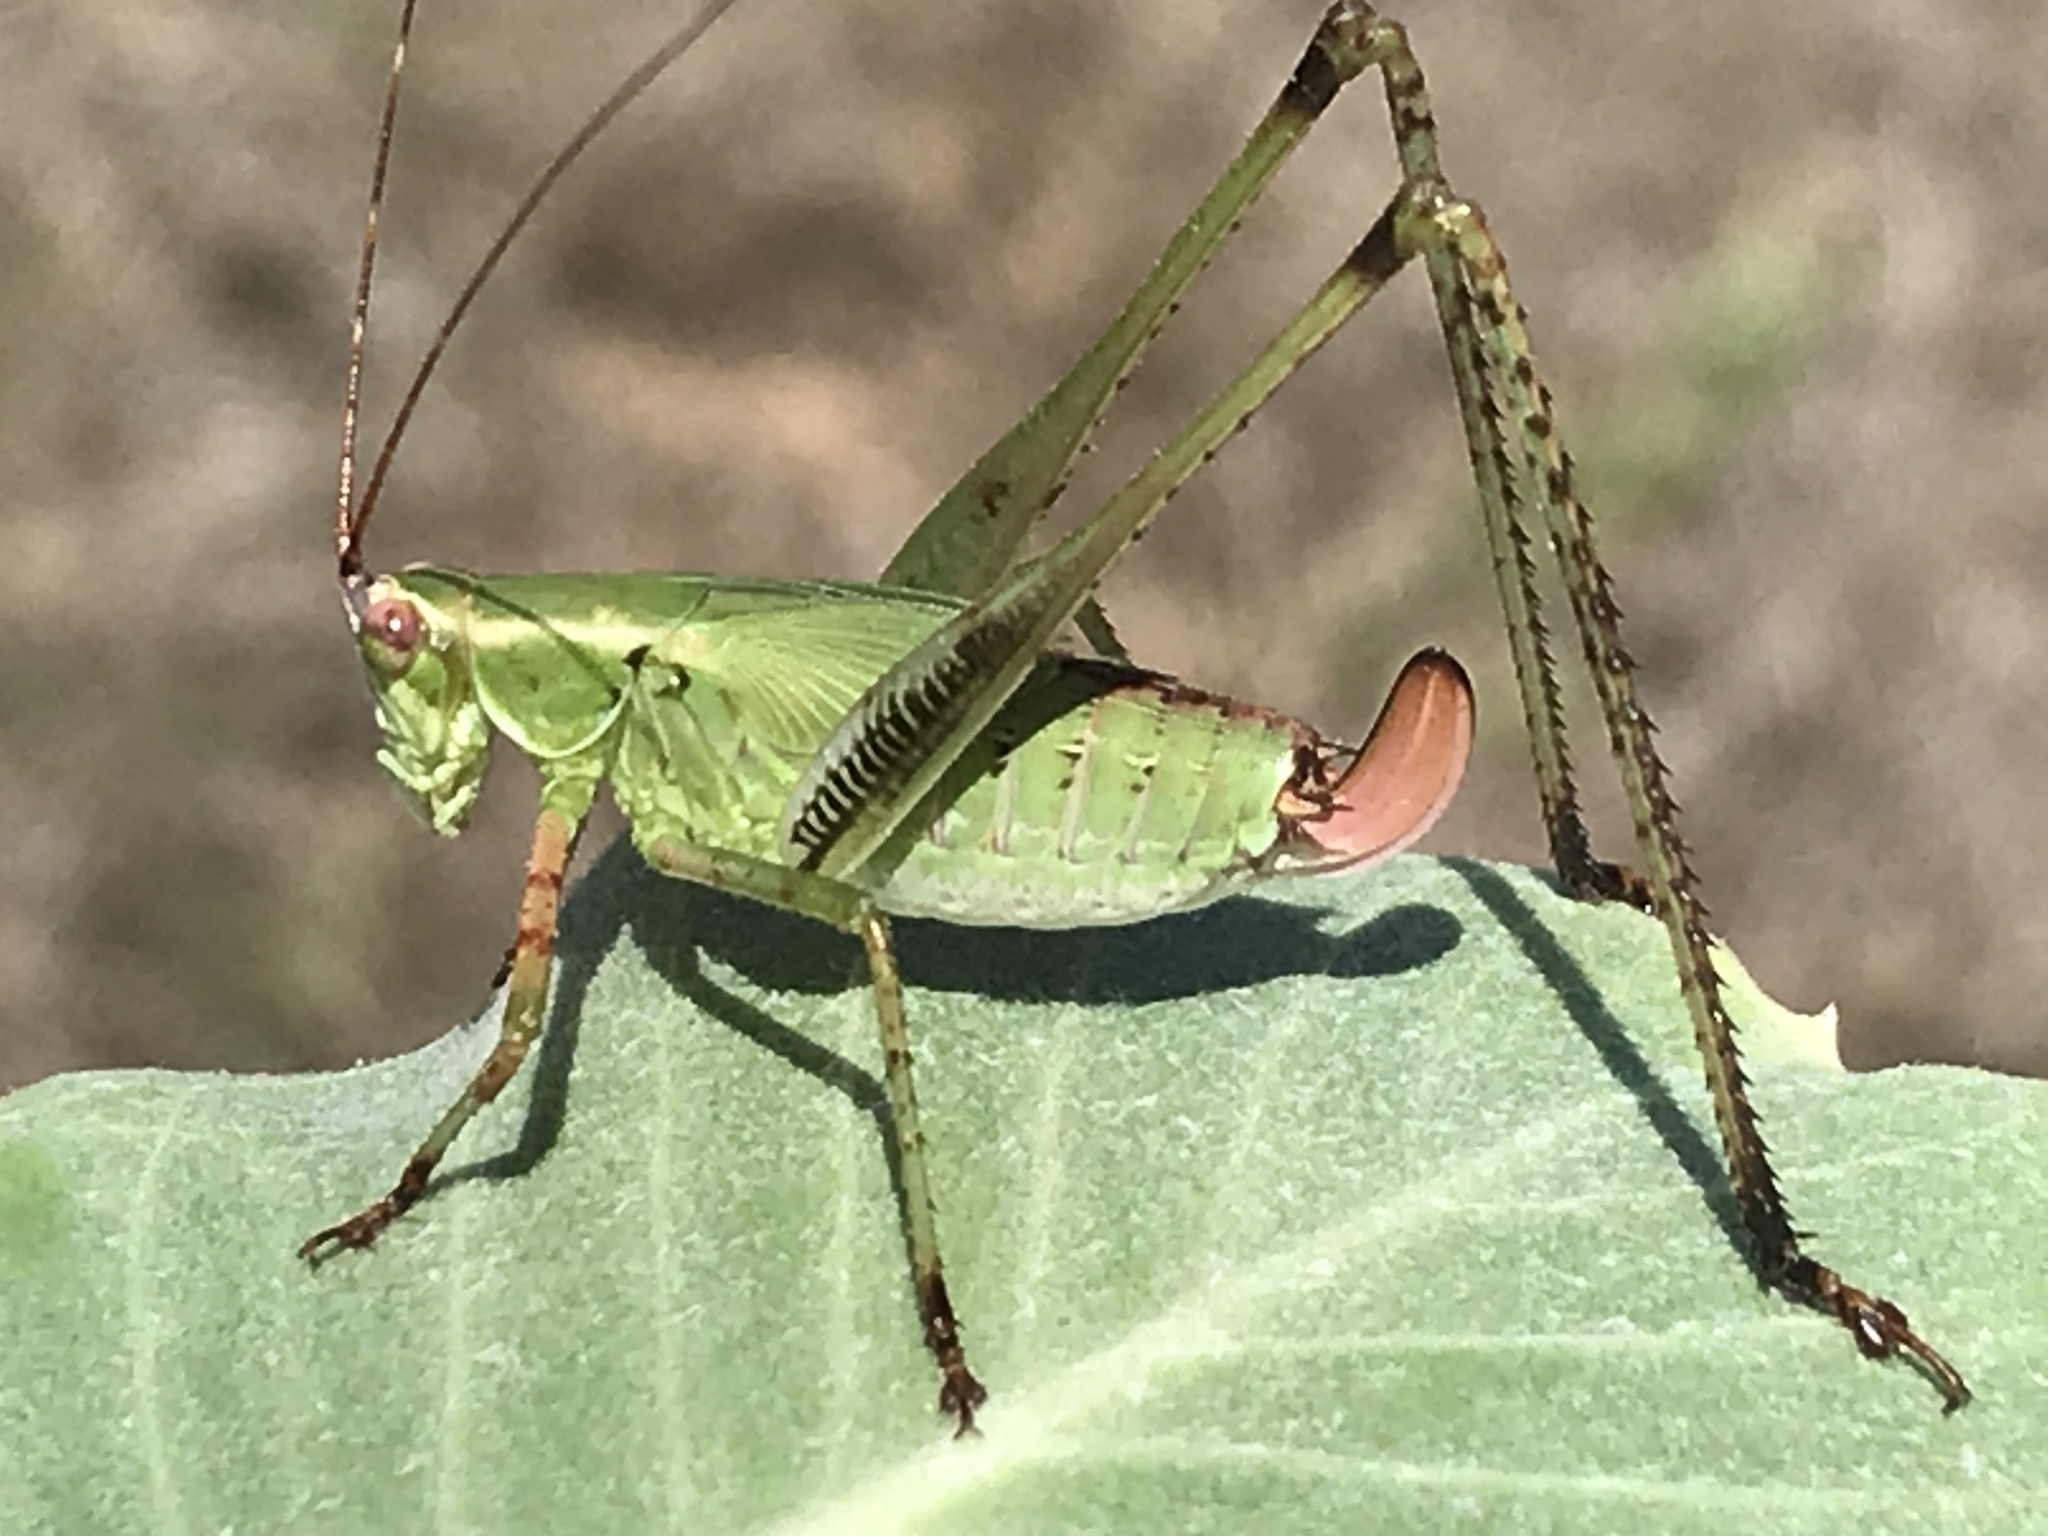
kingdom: Animalia
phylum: Arthropoda
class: Insecta
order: Orthoptera
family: Tettigoniidae
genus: Scudderia
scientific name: Scudderia furcata
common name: Fork-tailed bush katydid
